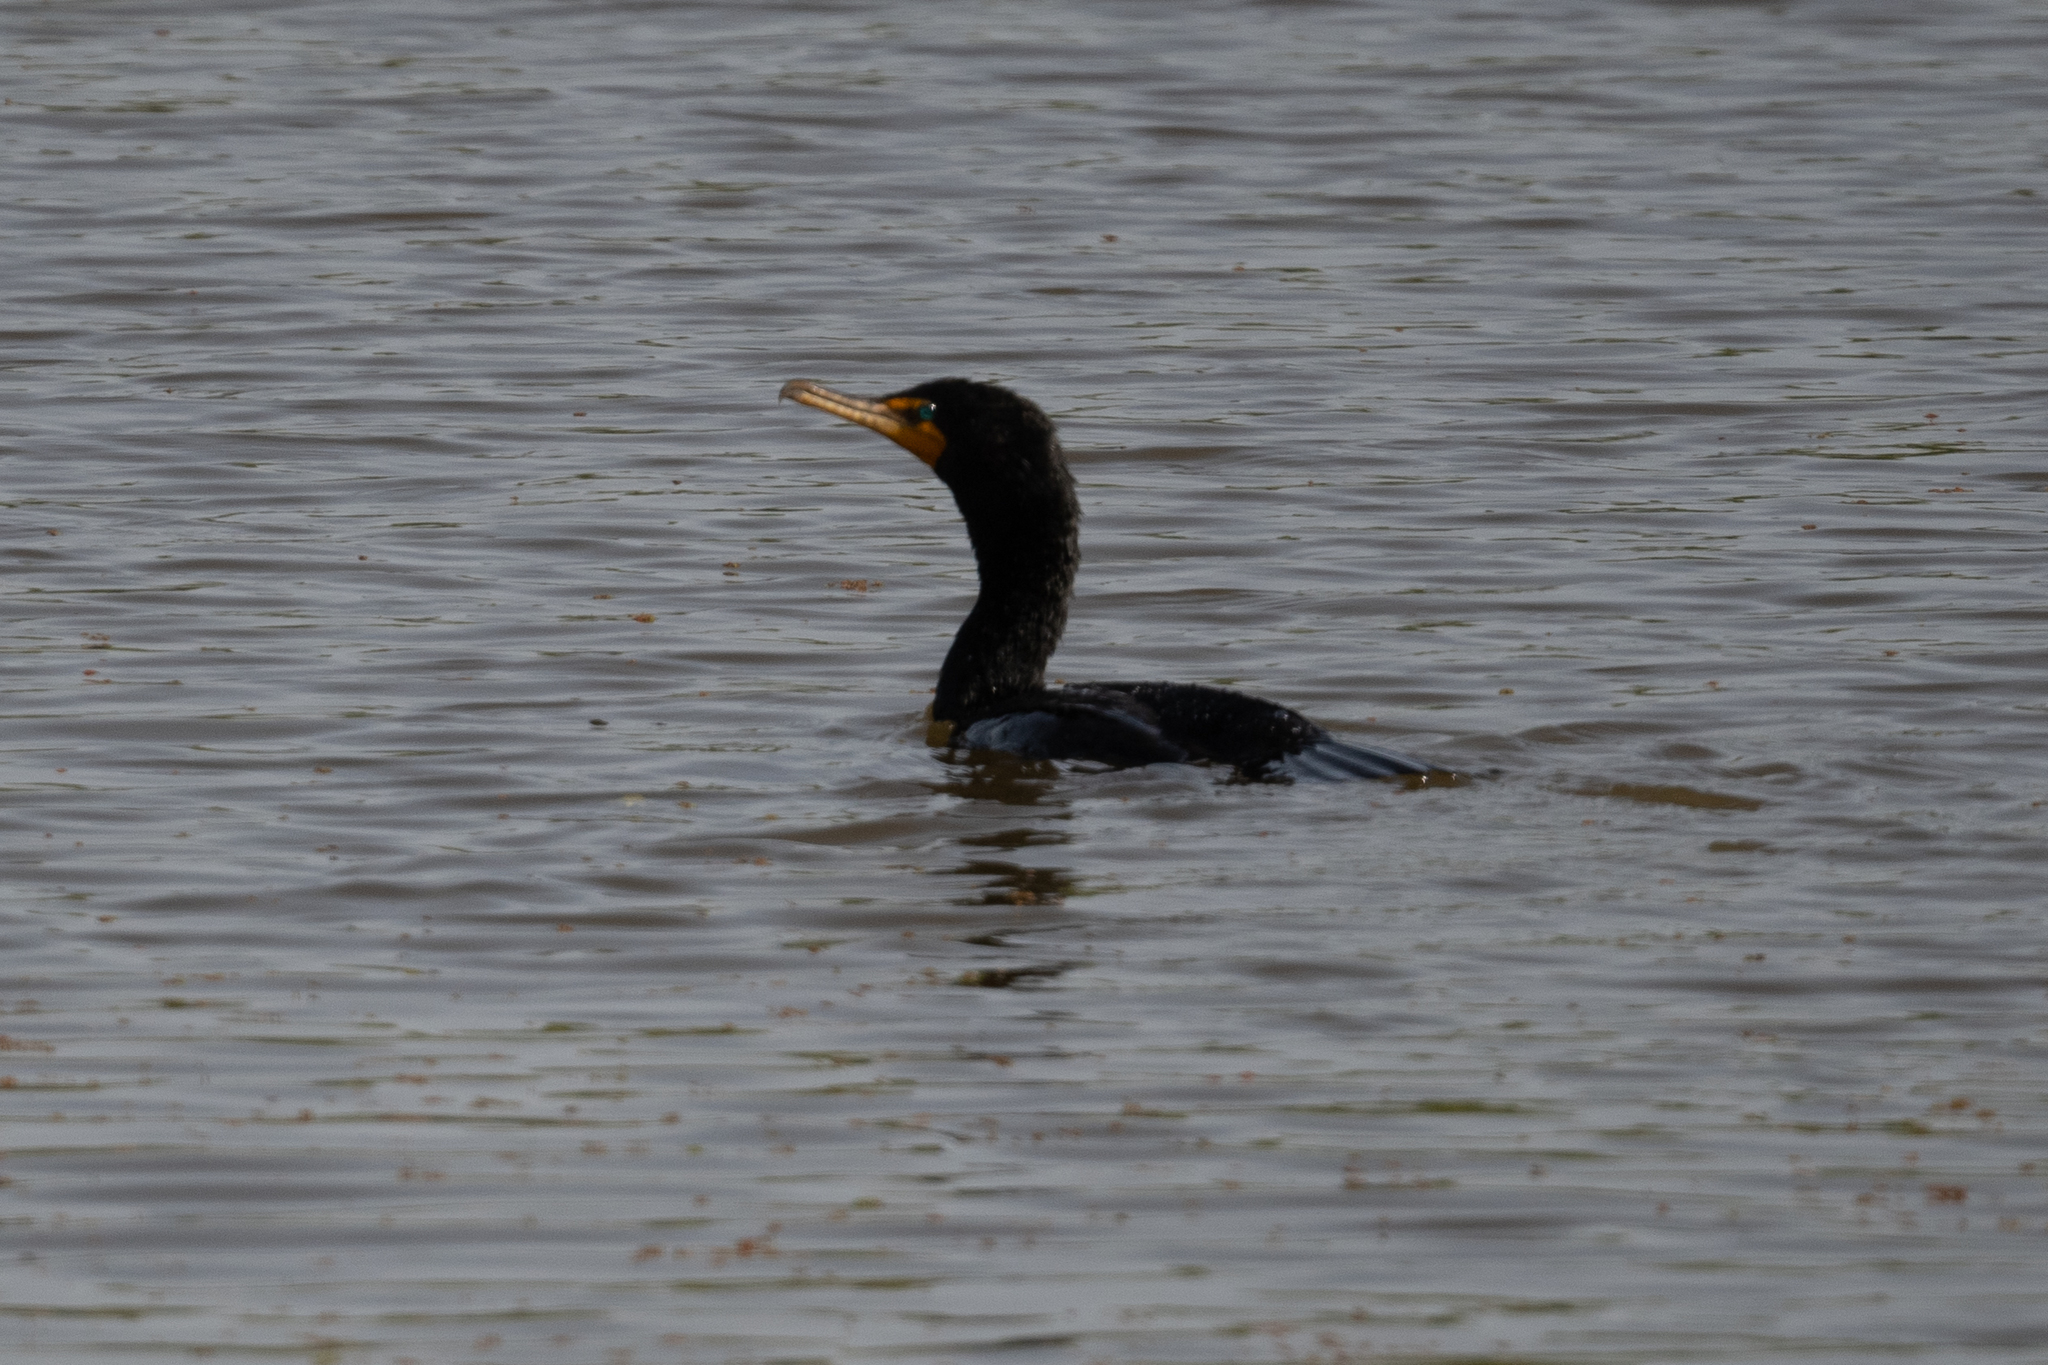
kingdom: Animalia
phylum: Chordata
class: Aves
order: Suliformes
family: Phalacrocoracidae
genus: Phalacrocorax
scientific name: Phalacrocorax auritus
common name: Double-crested cormorant
